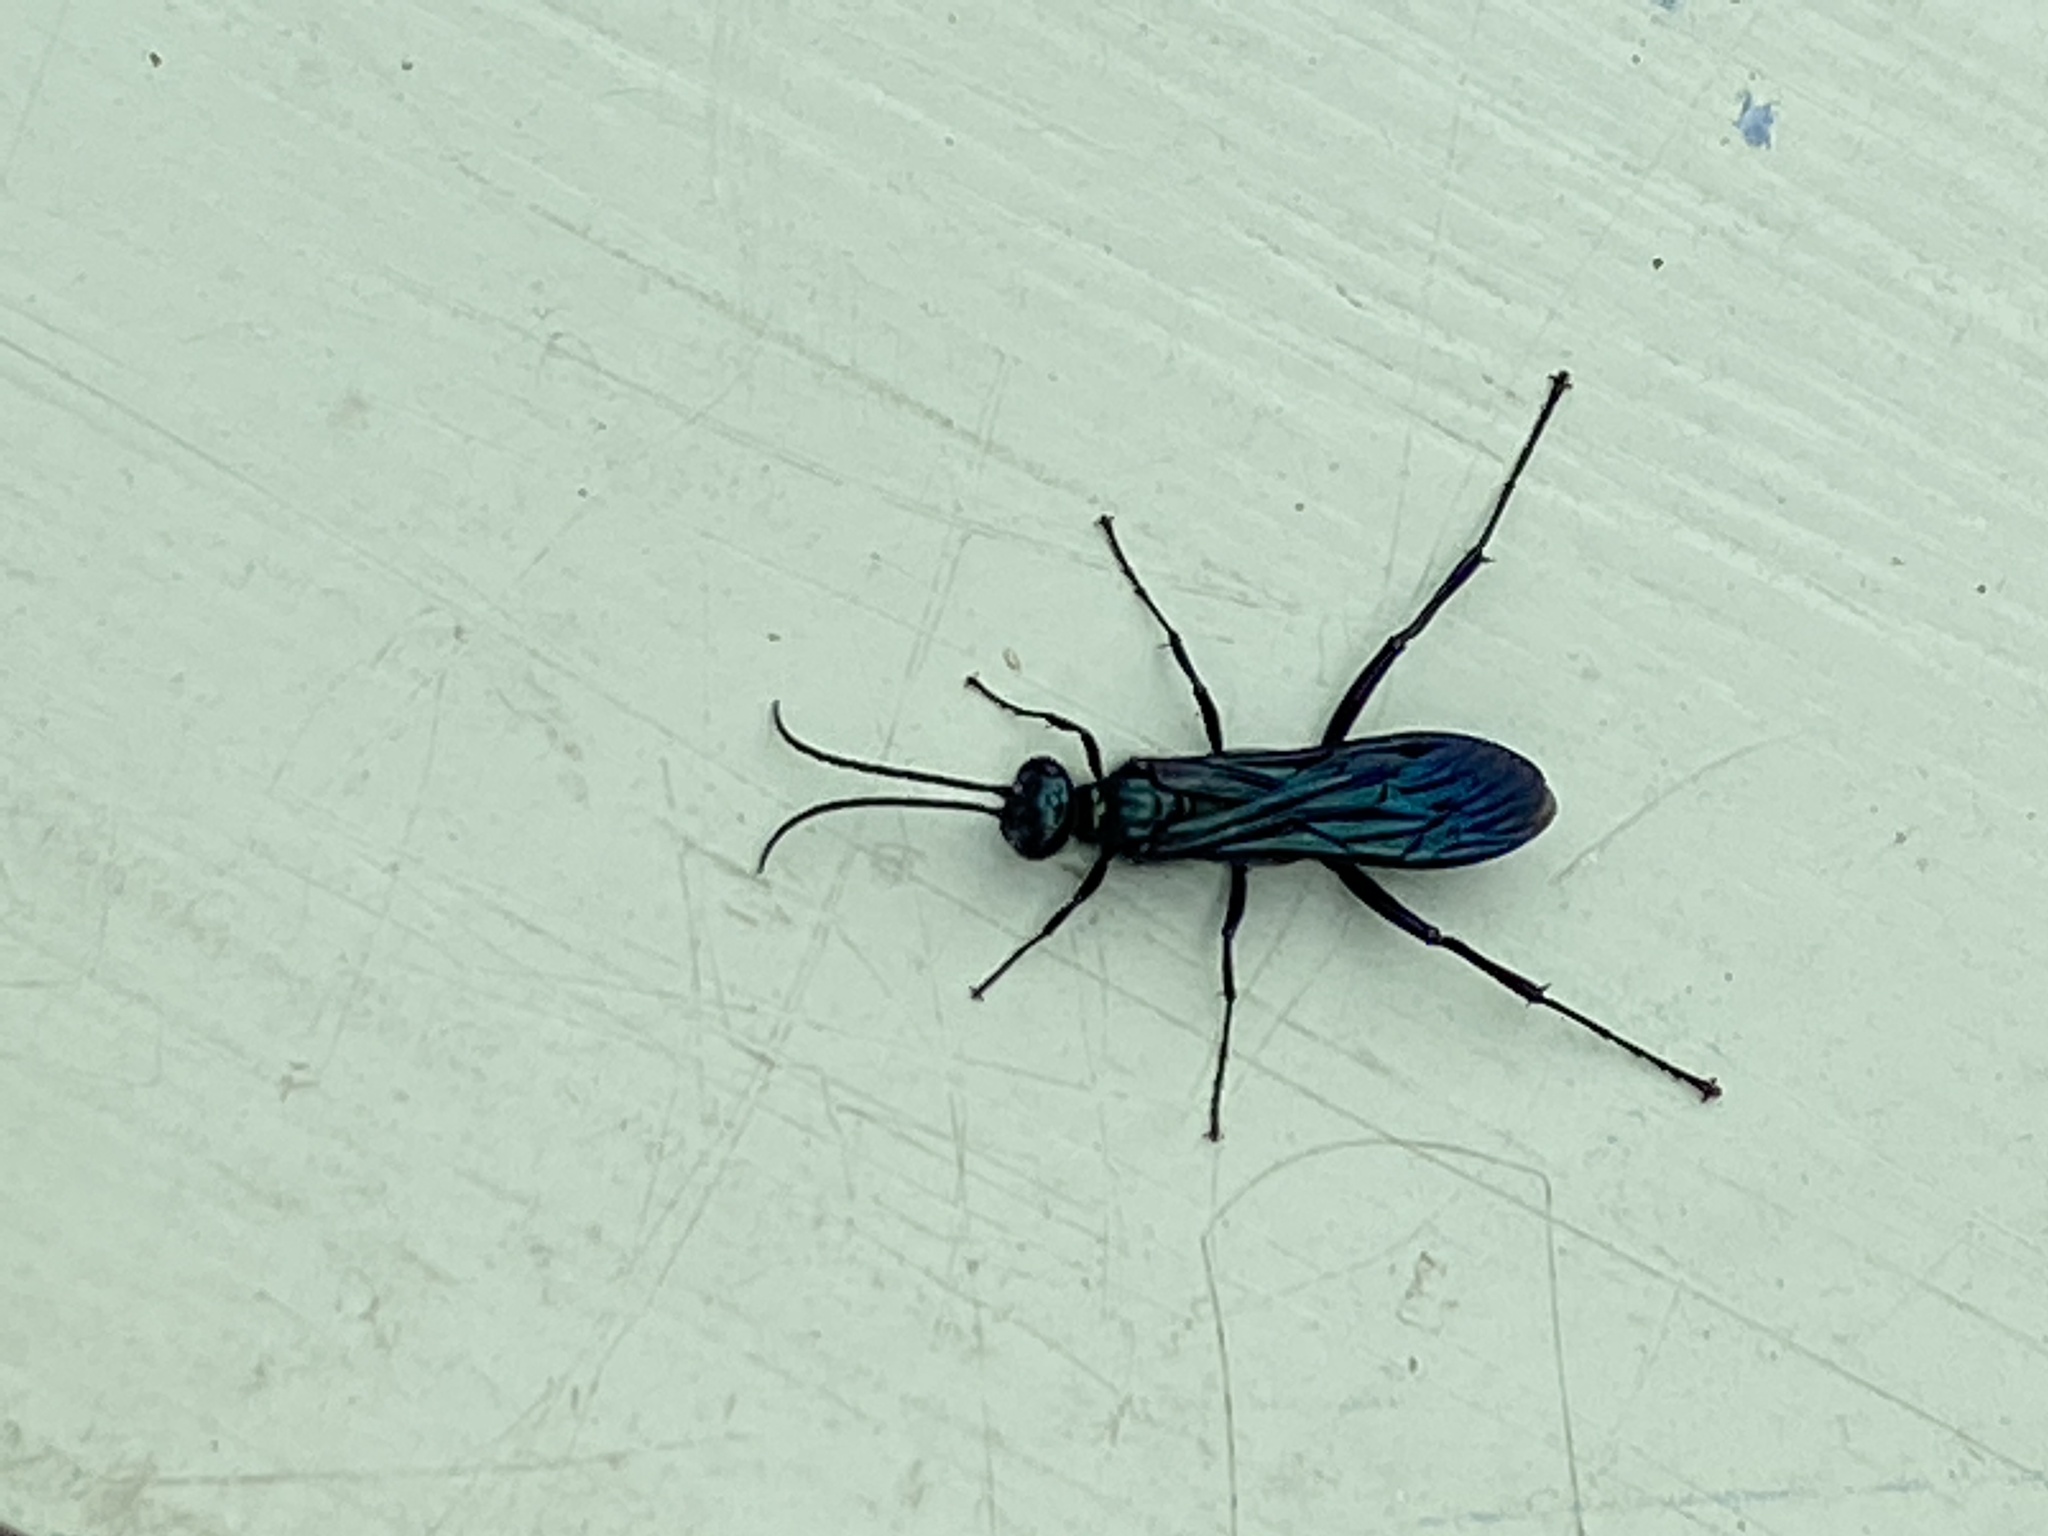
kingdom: Animalia
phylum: Arthropoda
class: Insecta
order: Hymenoptera
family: Sphecidae
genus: Chalybion
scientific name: Chalybion californicum
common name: Mud dauber
